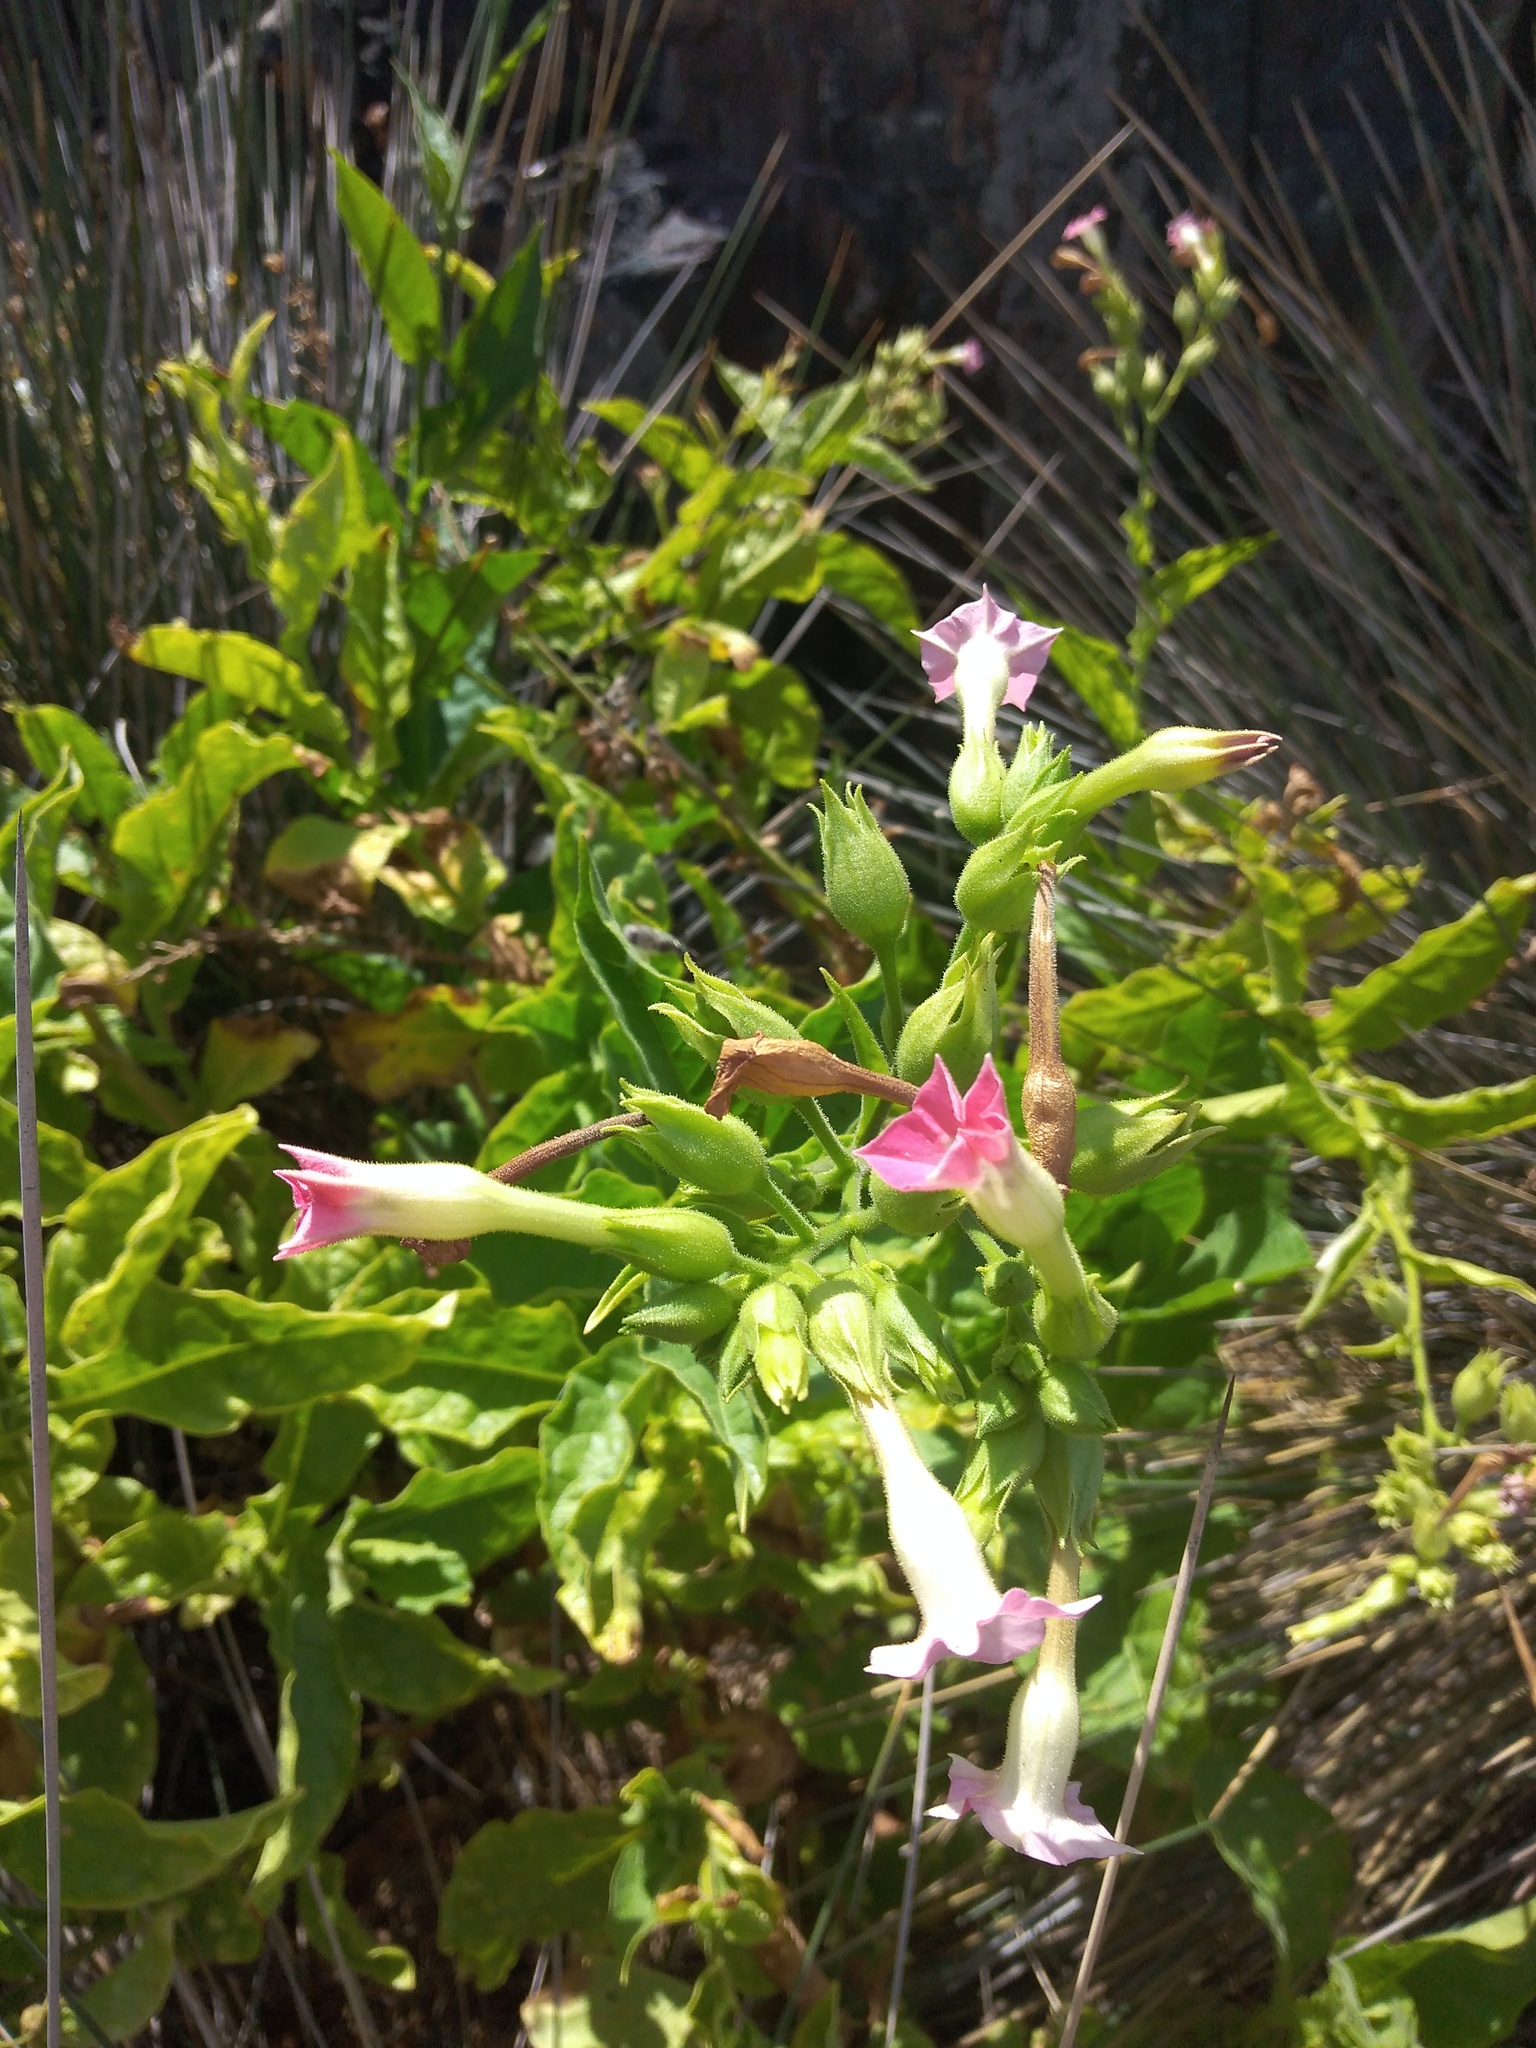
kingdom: Plantae
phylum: Tracheophyta
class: Magnoliopsida
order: Solanales
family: Solanaceae
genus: Nicotiana
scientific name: Nicotiana tabacum
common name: Tobacco
